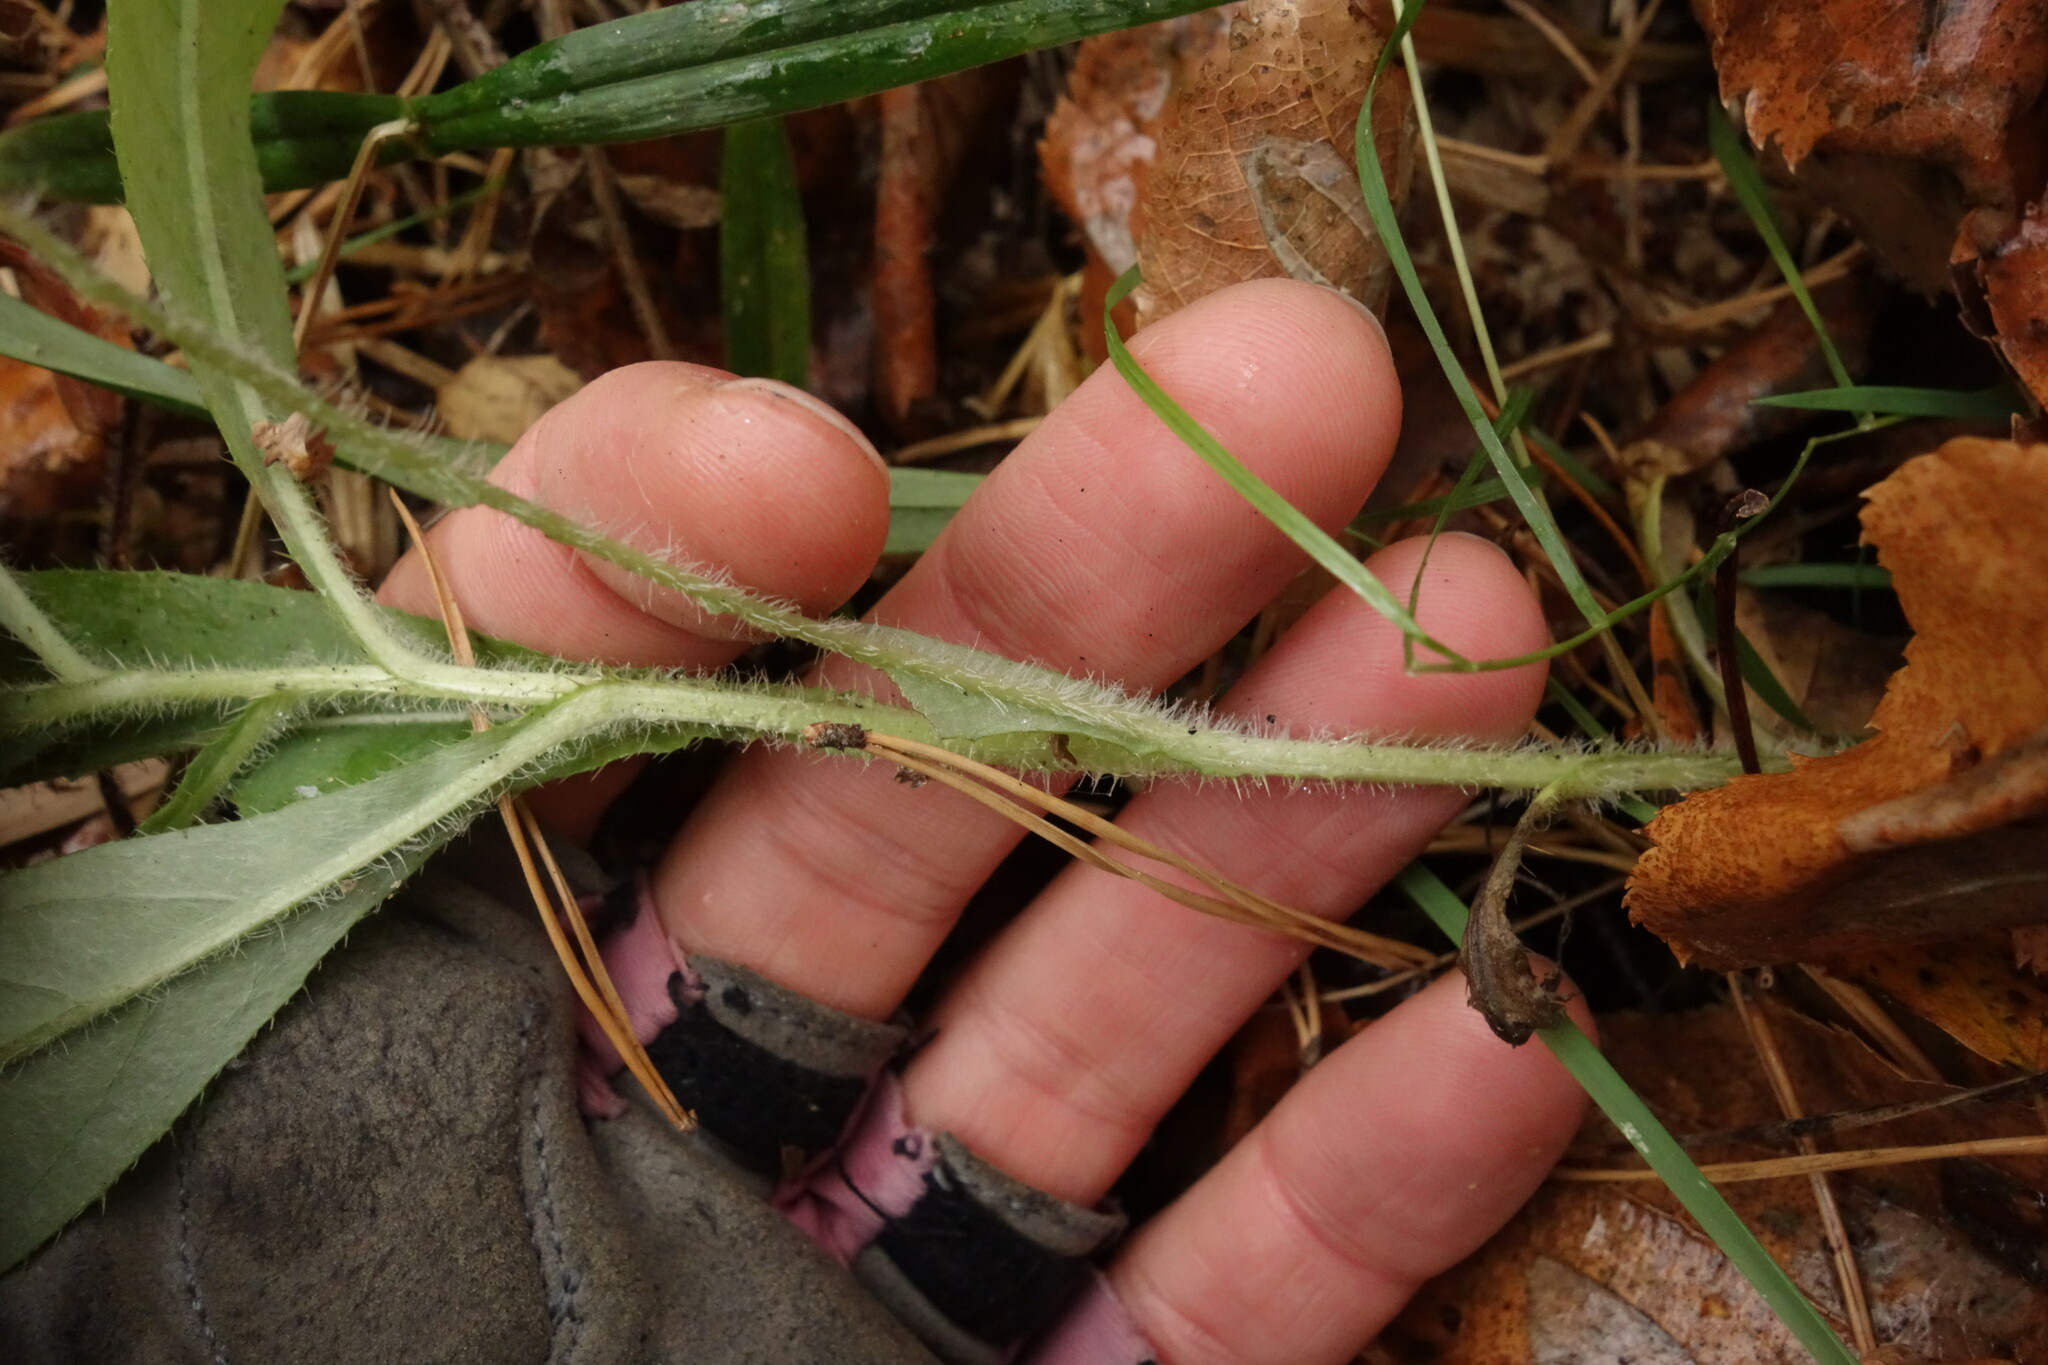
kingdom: Plantae
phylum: Tracheophyta
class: Magnoliopsida
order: Asterales
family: Asteraceae
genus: Cirsium
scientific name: Cirsium arvense
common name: Creeping thistle
